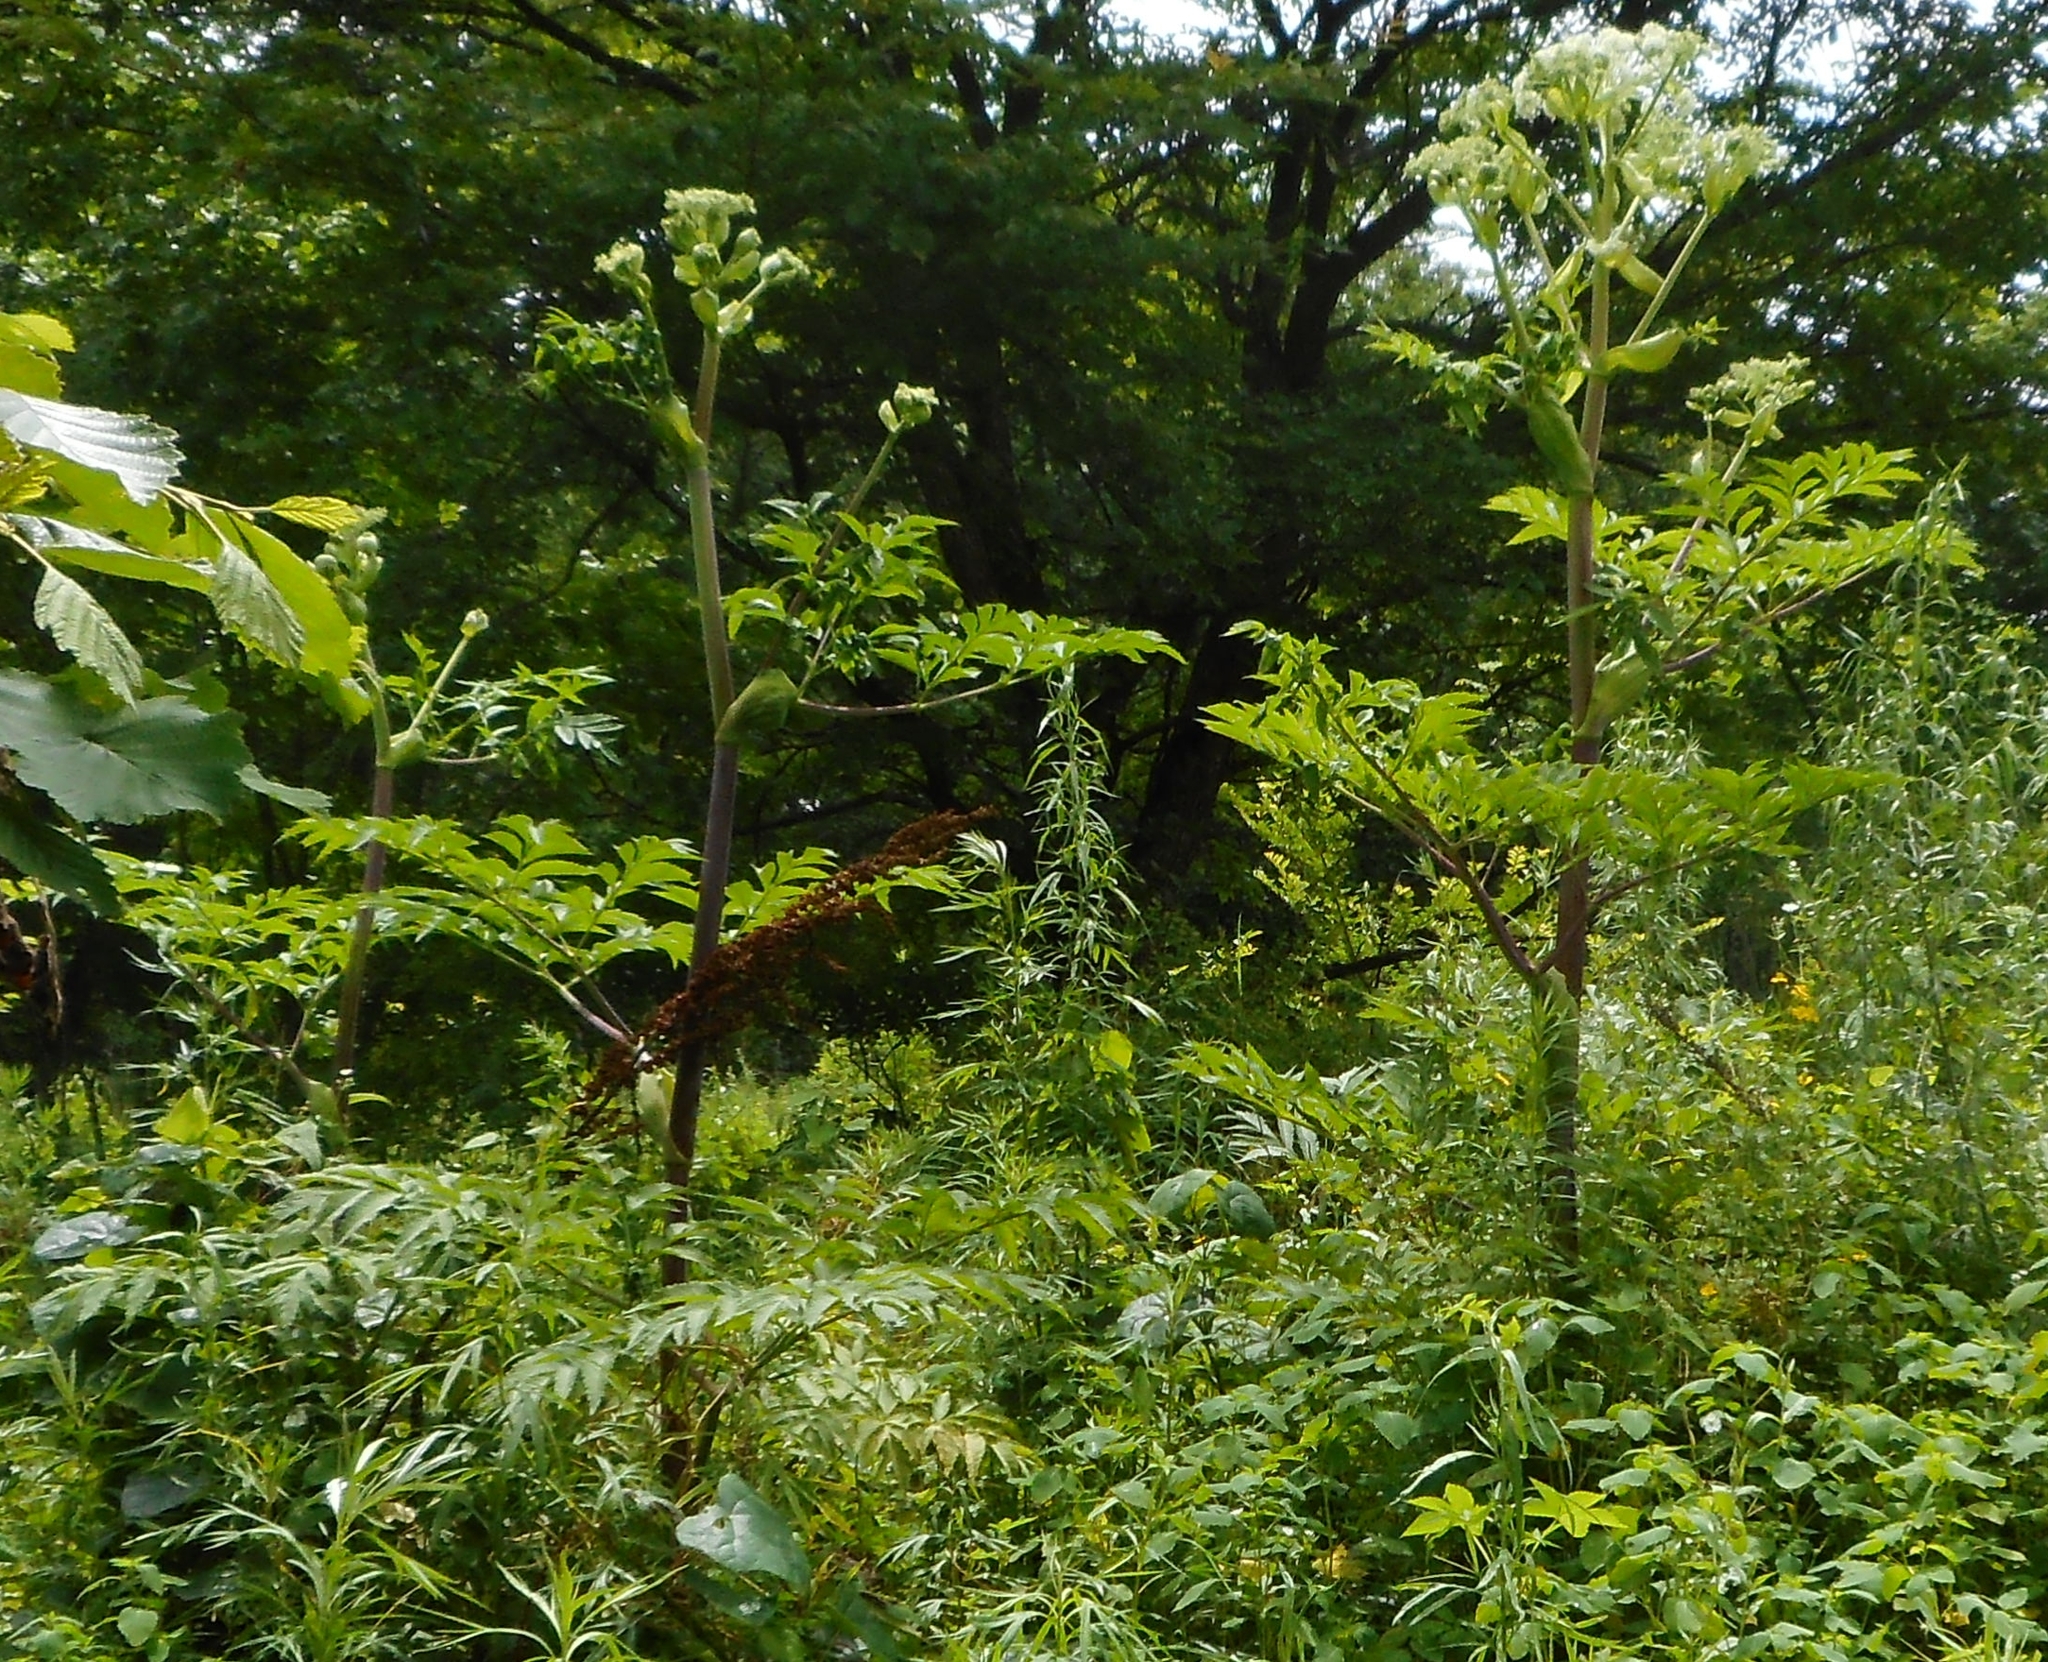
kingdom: Plantae
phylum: Tracheophyta
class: Magnoliopsida
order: Apiales
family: Apiaceae
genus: Angelica
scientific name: Angelica dahurica
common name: Dahurian angelica
